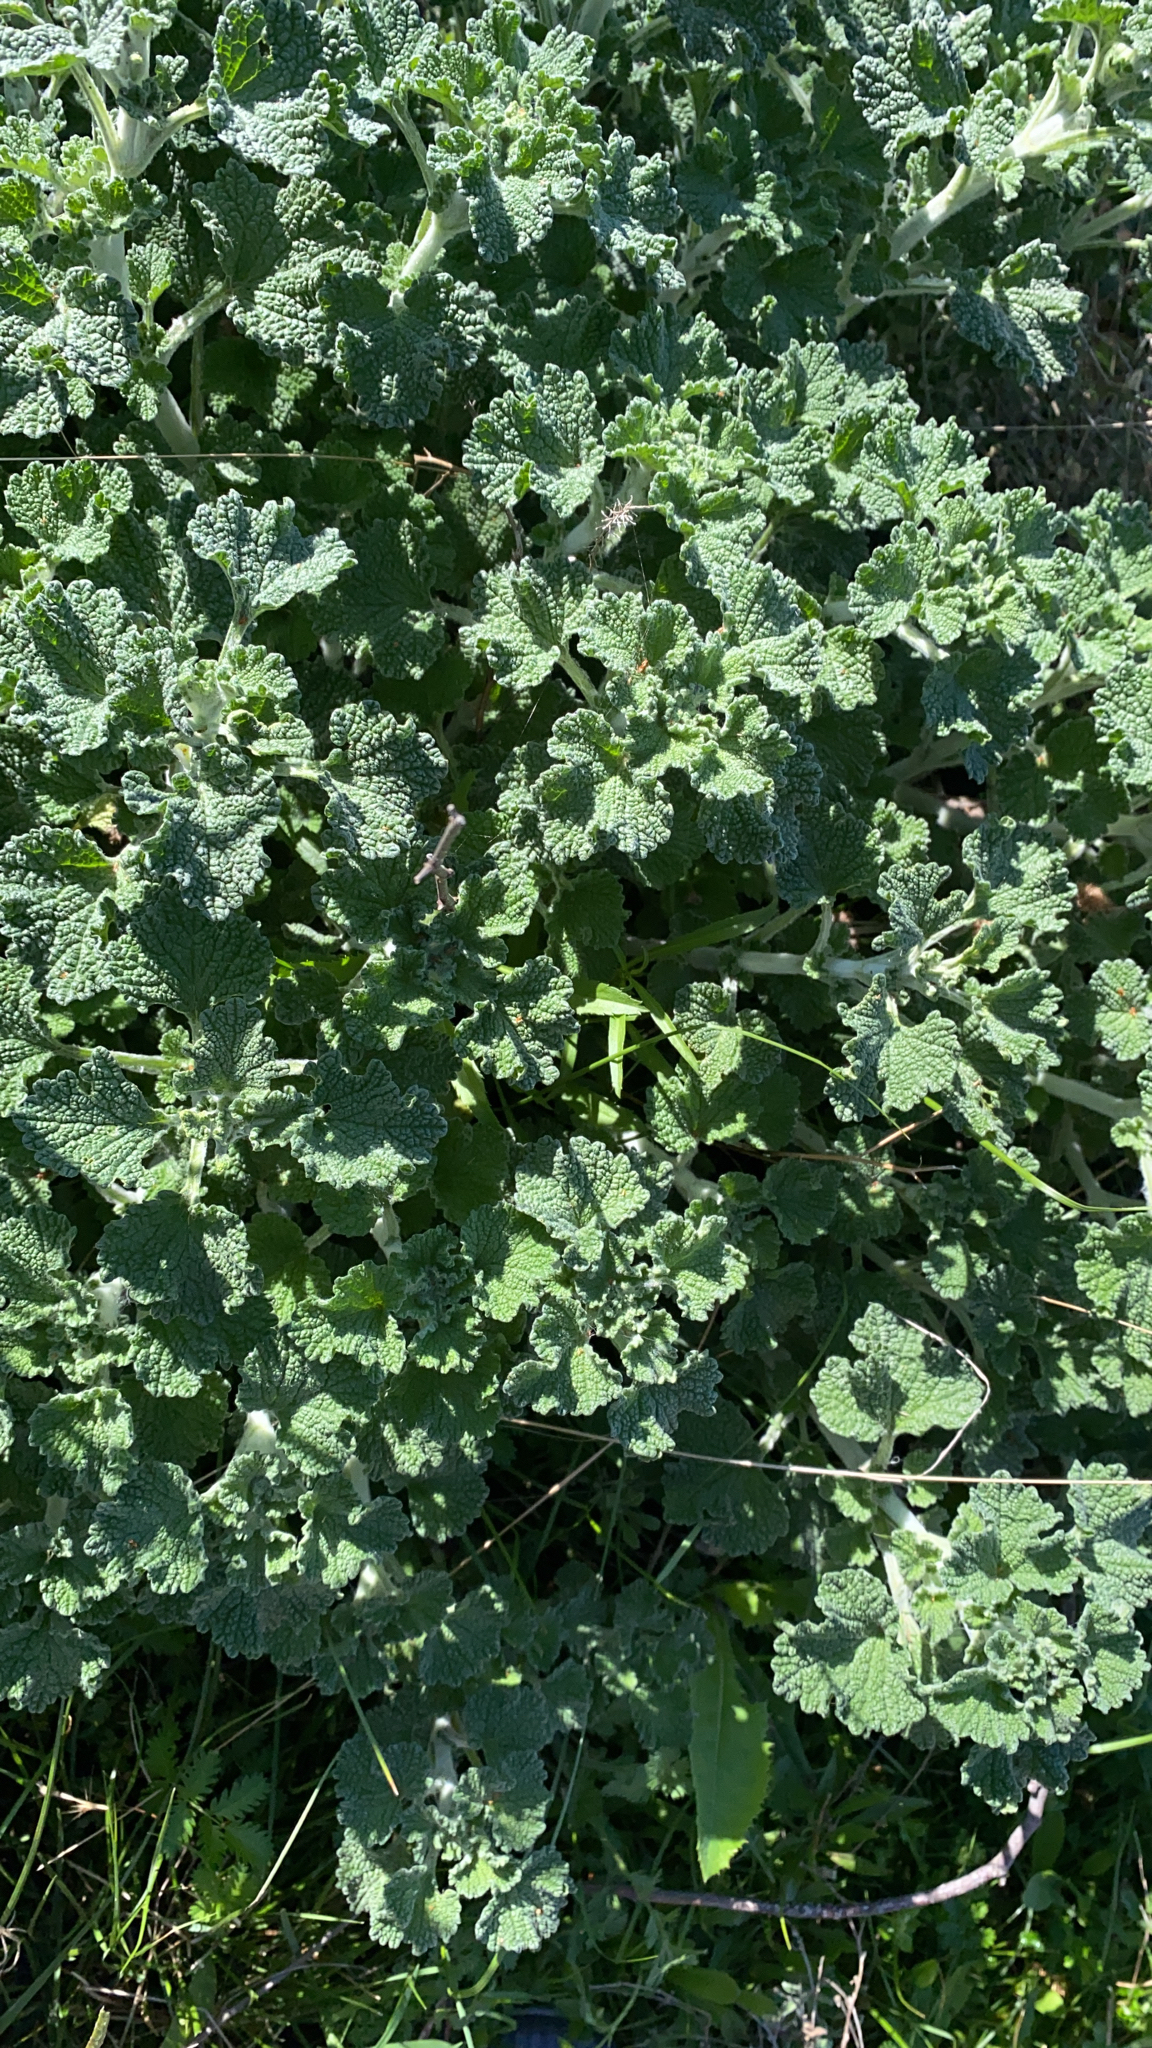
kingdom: Plantae
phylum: Tracheophyta
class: Magnoliopsida
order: Lamiales
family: Lamiaceae
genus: Marrubium
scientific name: Marrubium vulgare
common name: Horehound
